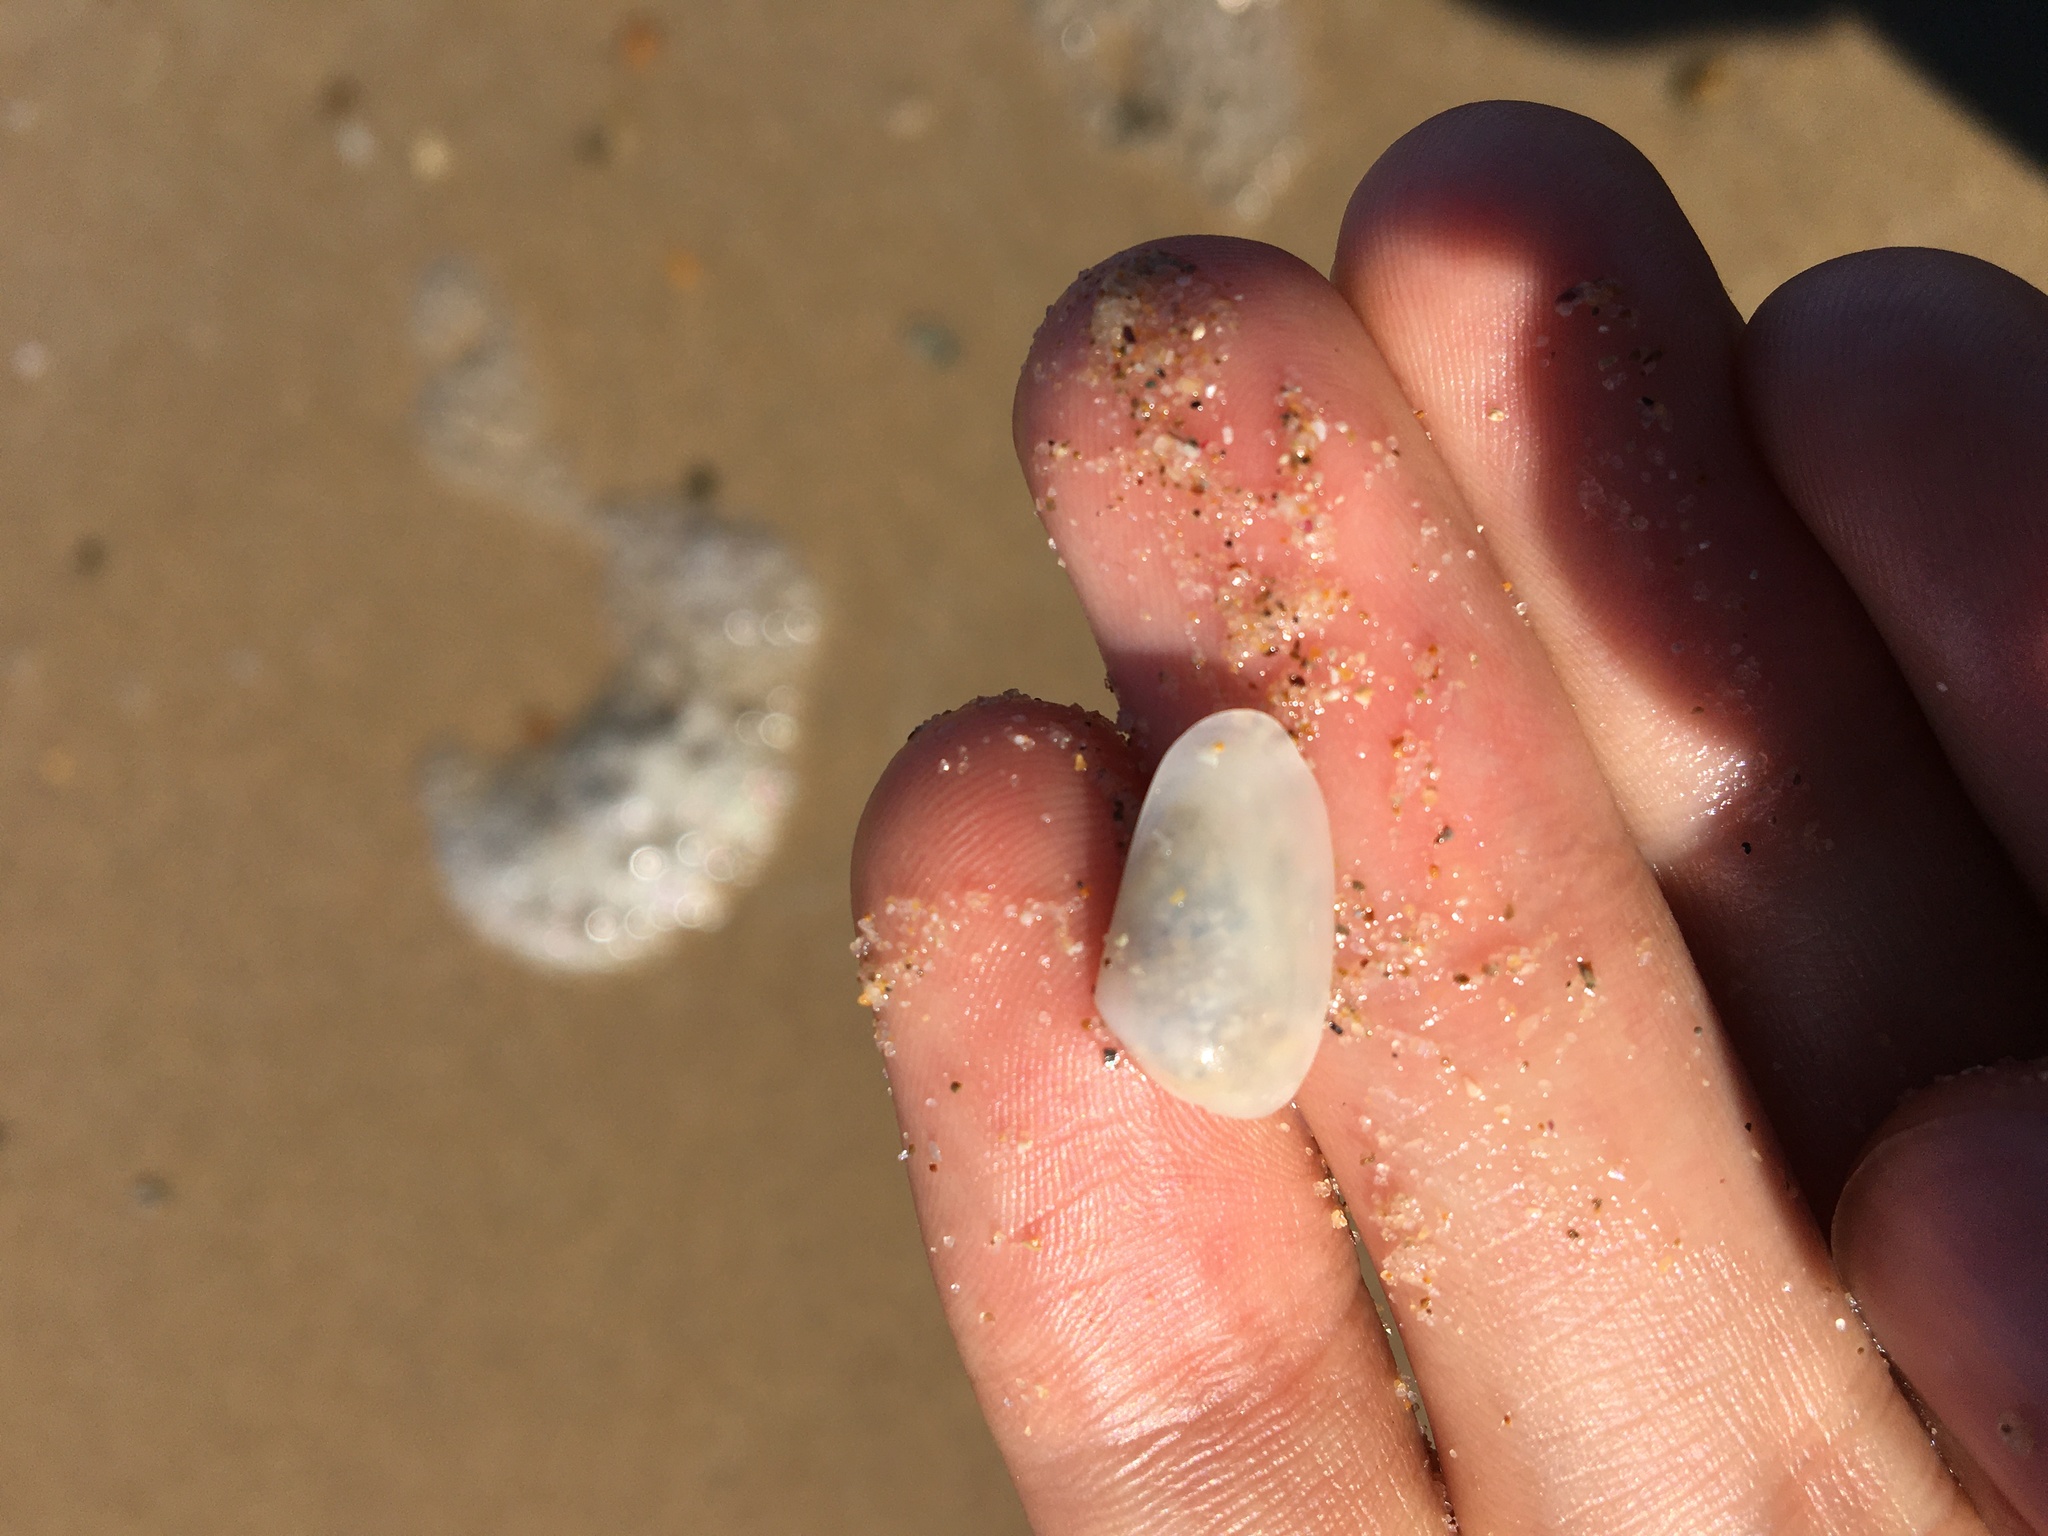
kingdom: Animalia
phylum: Mollusca
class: Bivalvia
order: Venerida
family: Mesodesmatidae
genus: Paphies
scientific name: Paphies angusta
